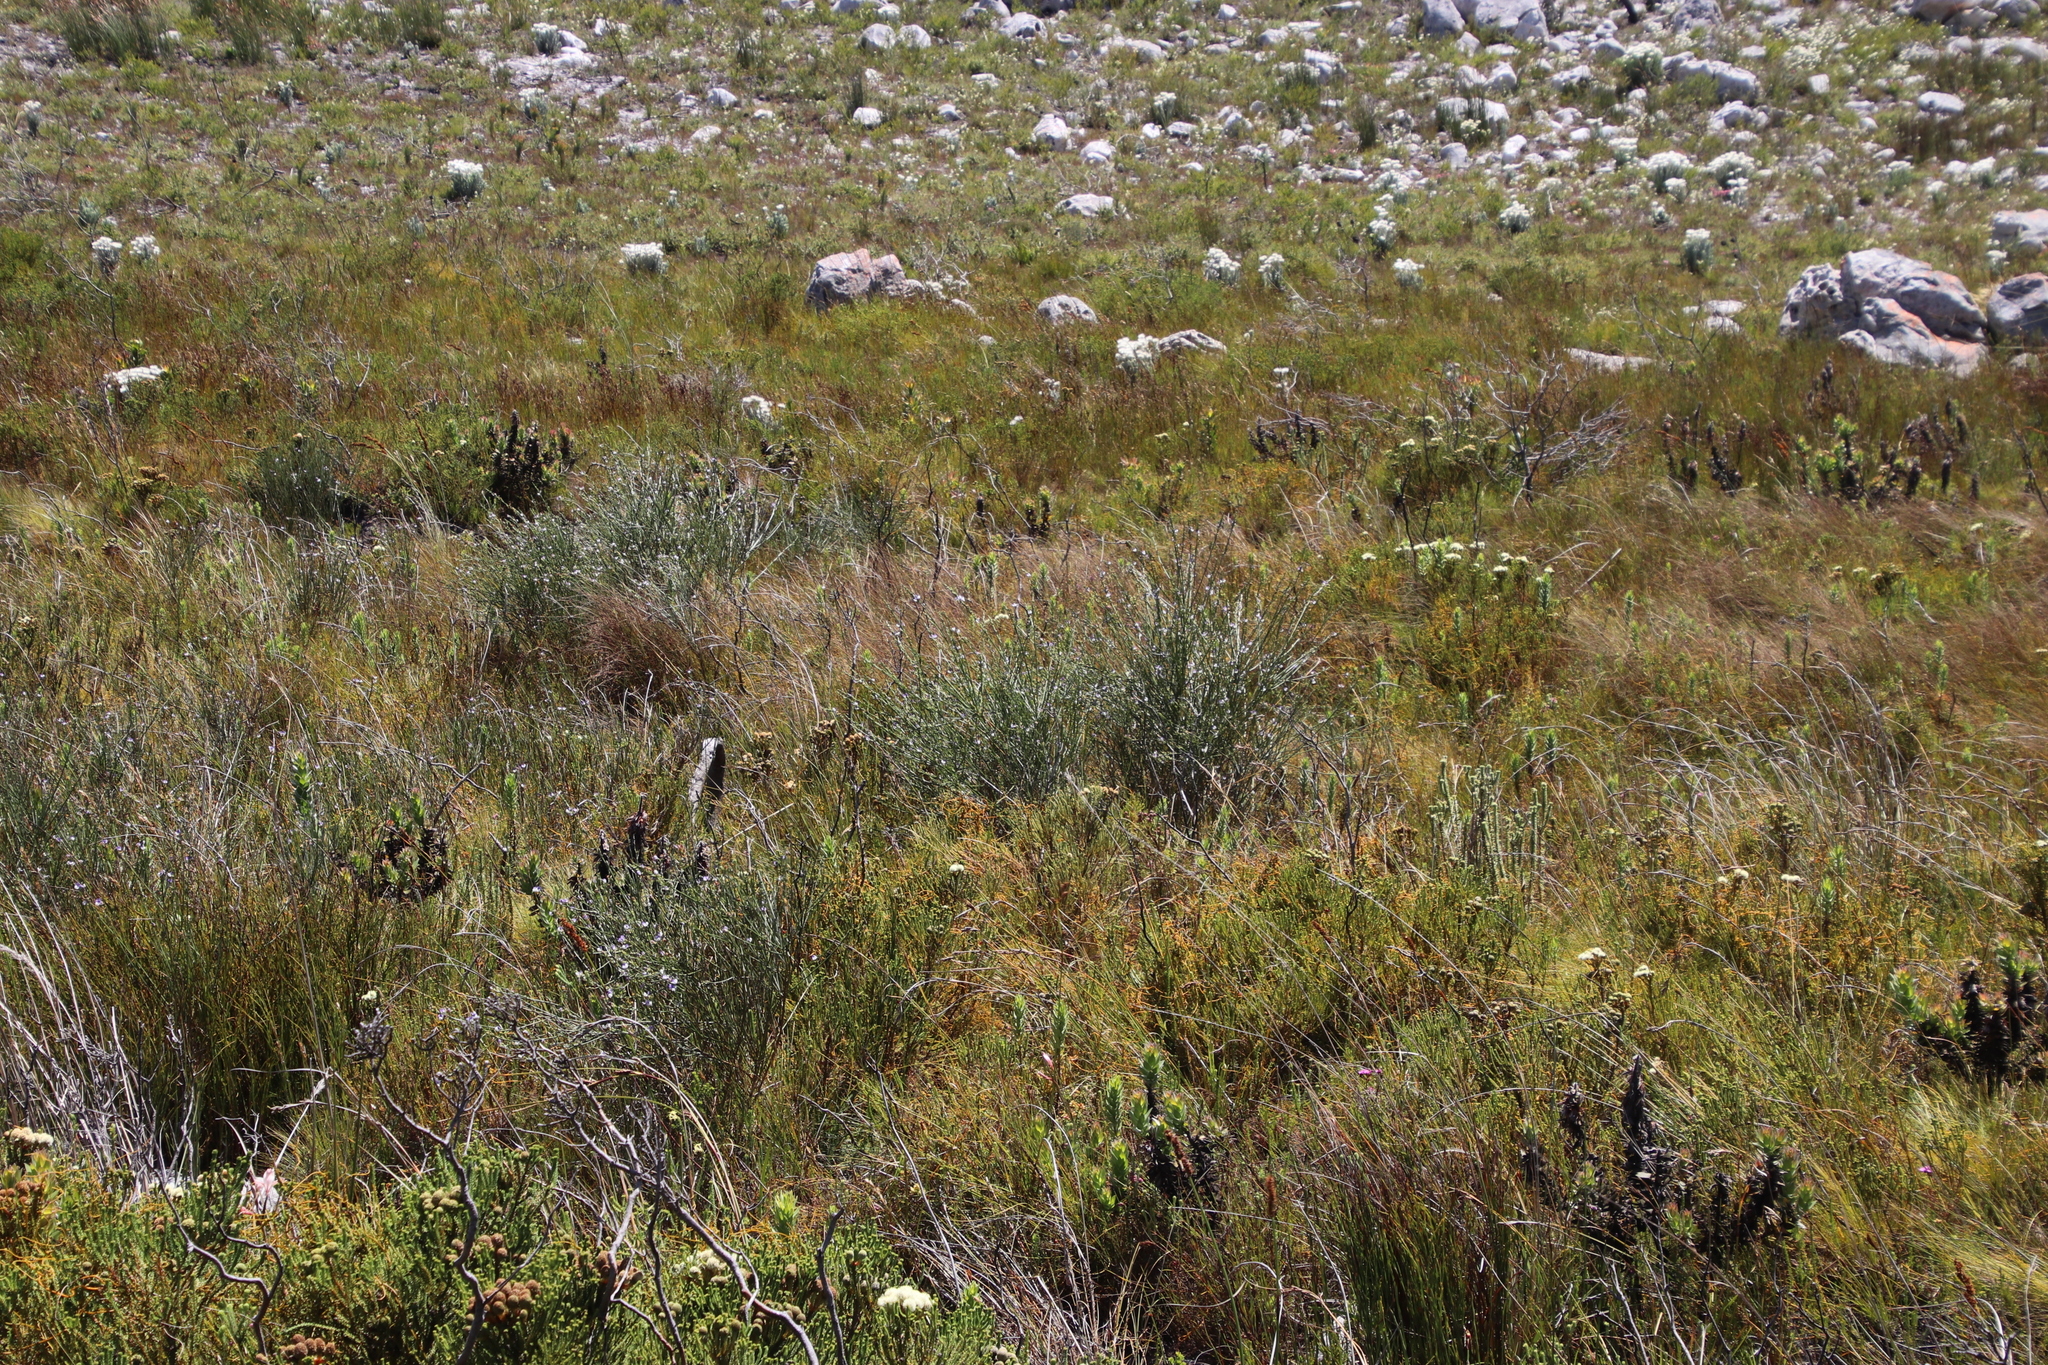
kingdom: Plantae
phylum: Tracheophyta
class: Magnoliopsida
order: Proteales
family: Proteaceae
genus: Mimetes
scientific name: Mimetes hirtus
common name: Marsh pagoda
